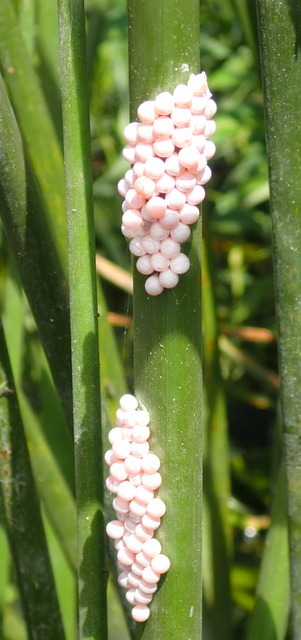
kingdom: Animalia
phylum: Mollusca
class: Gastropoda
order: Architaenioglossa
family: Ampullariidae
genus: Pomacea
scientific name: Pomacea paludosa
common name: Florida applesnail
